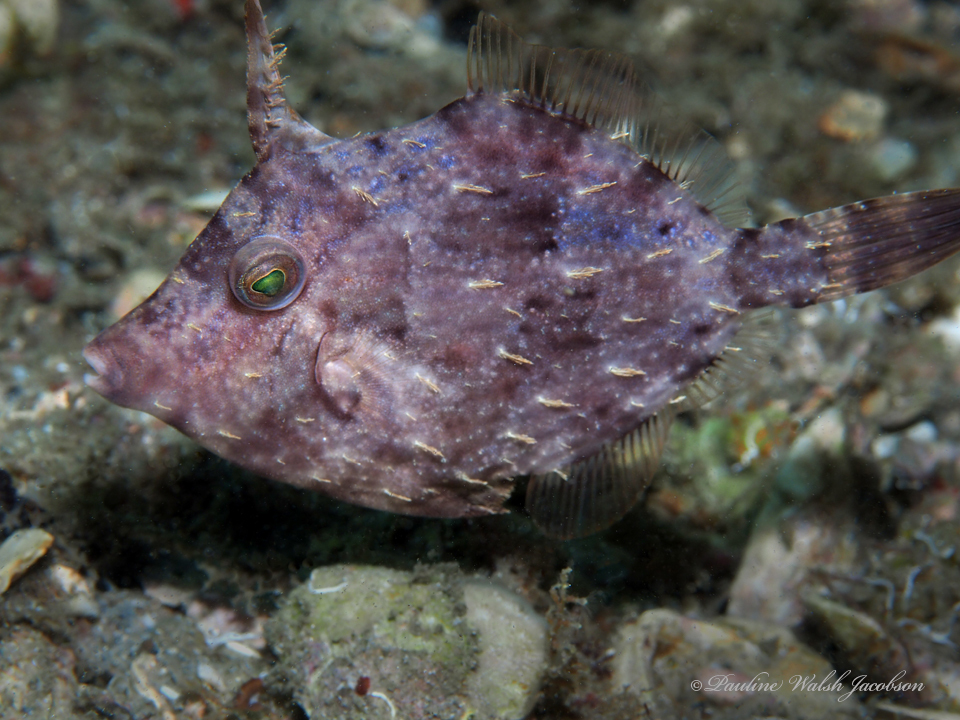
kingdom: Animalia
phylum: Chordata
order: Tetraodontiformes
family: Monacanthidae
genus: Stephanolepis
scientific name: Stephanolepis hispidus
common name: Planehead filefish
